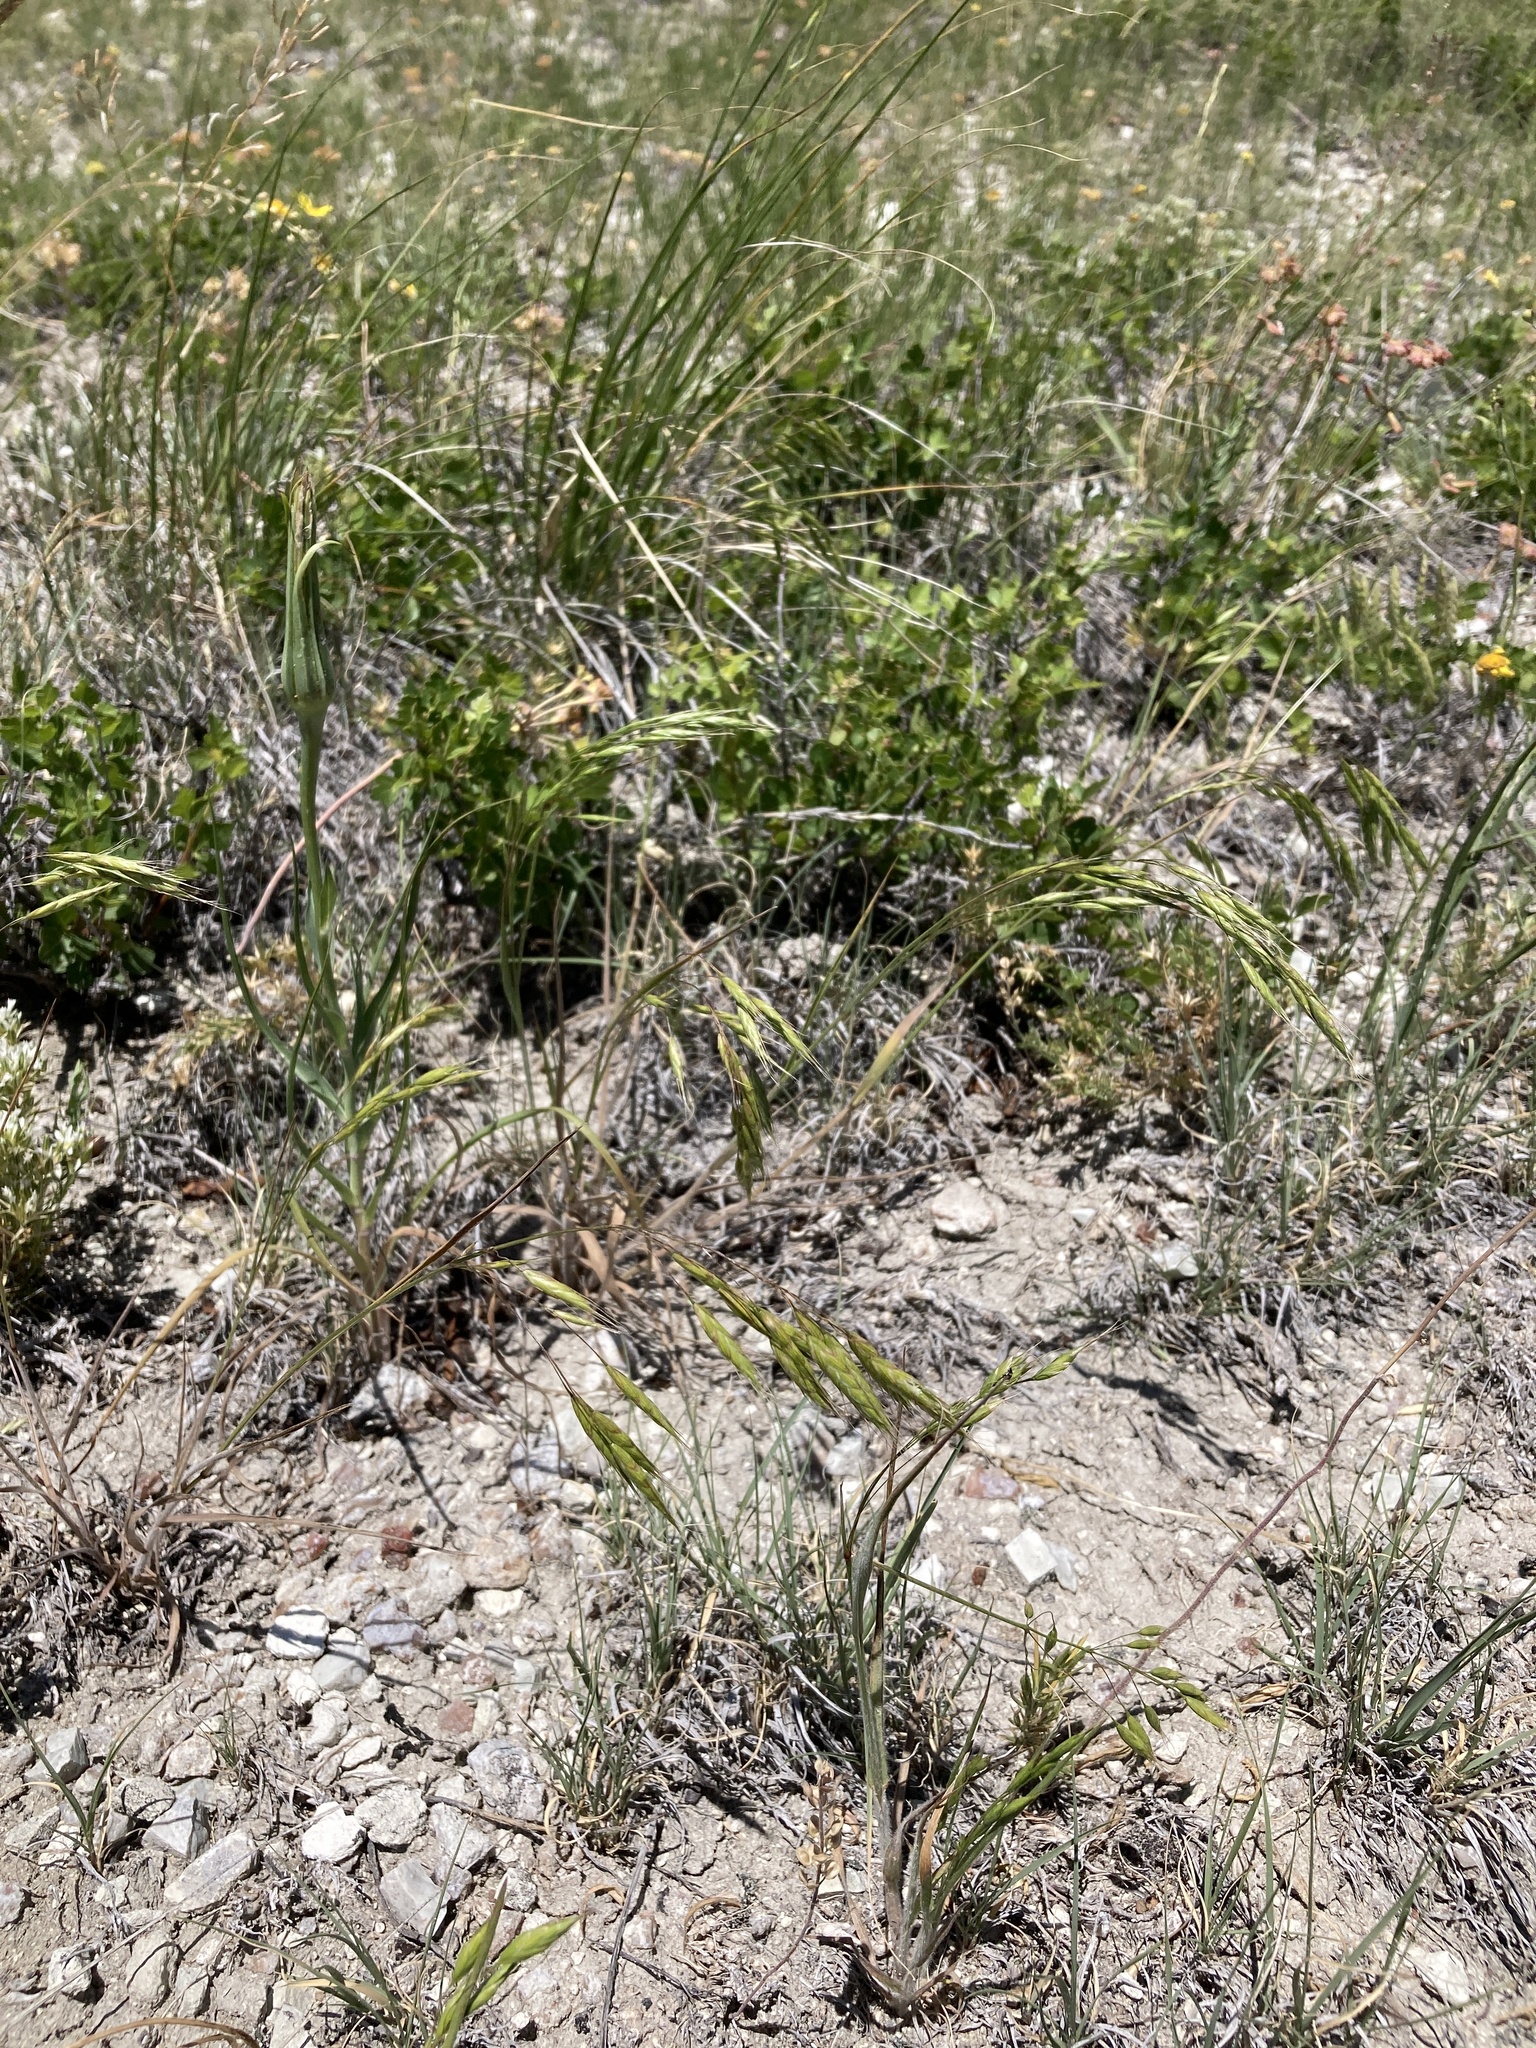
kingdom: Plantae
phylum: Tracheophyta
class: Liliopsida
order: Poales
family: Poaceae
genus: Bromus
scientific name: Bromus japonicus
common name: Japanese brome
